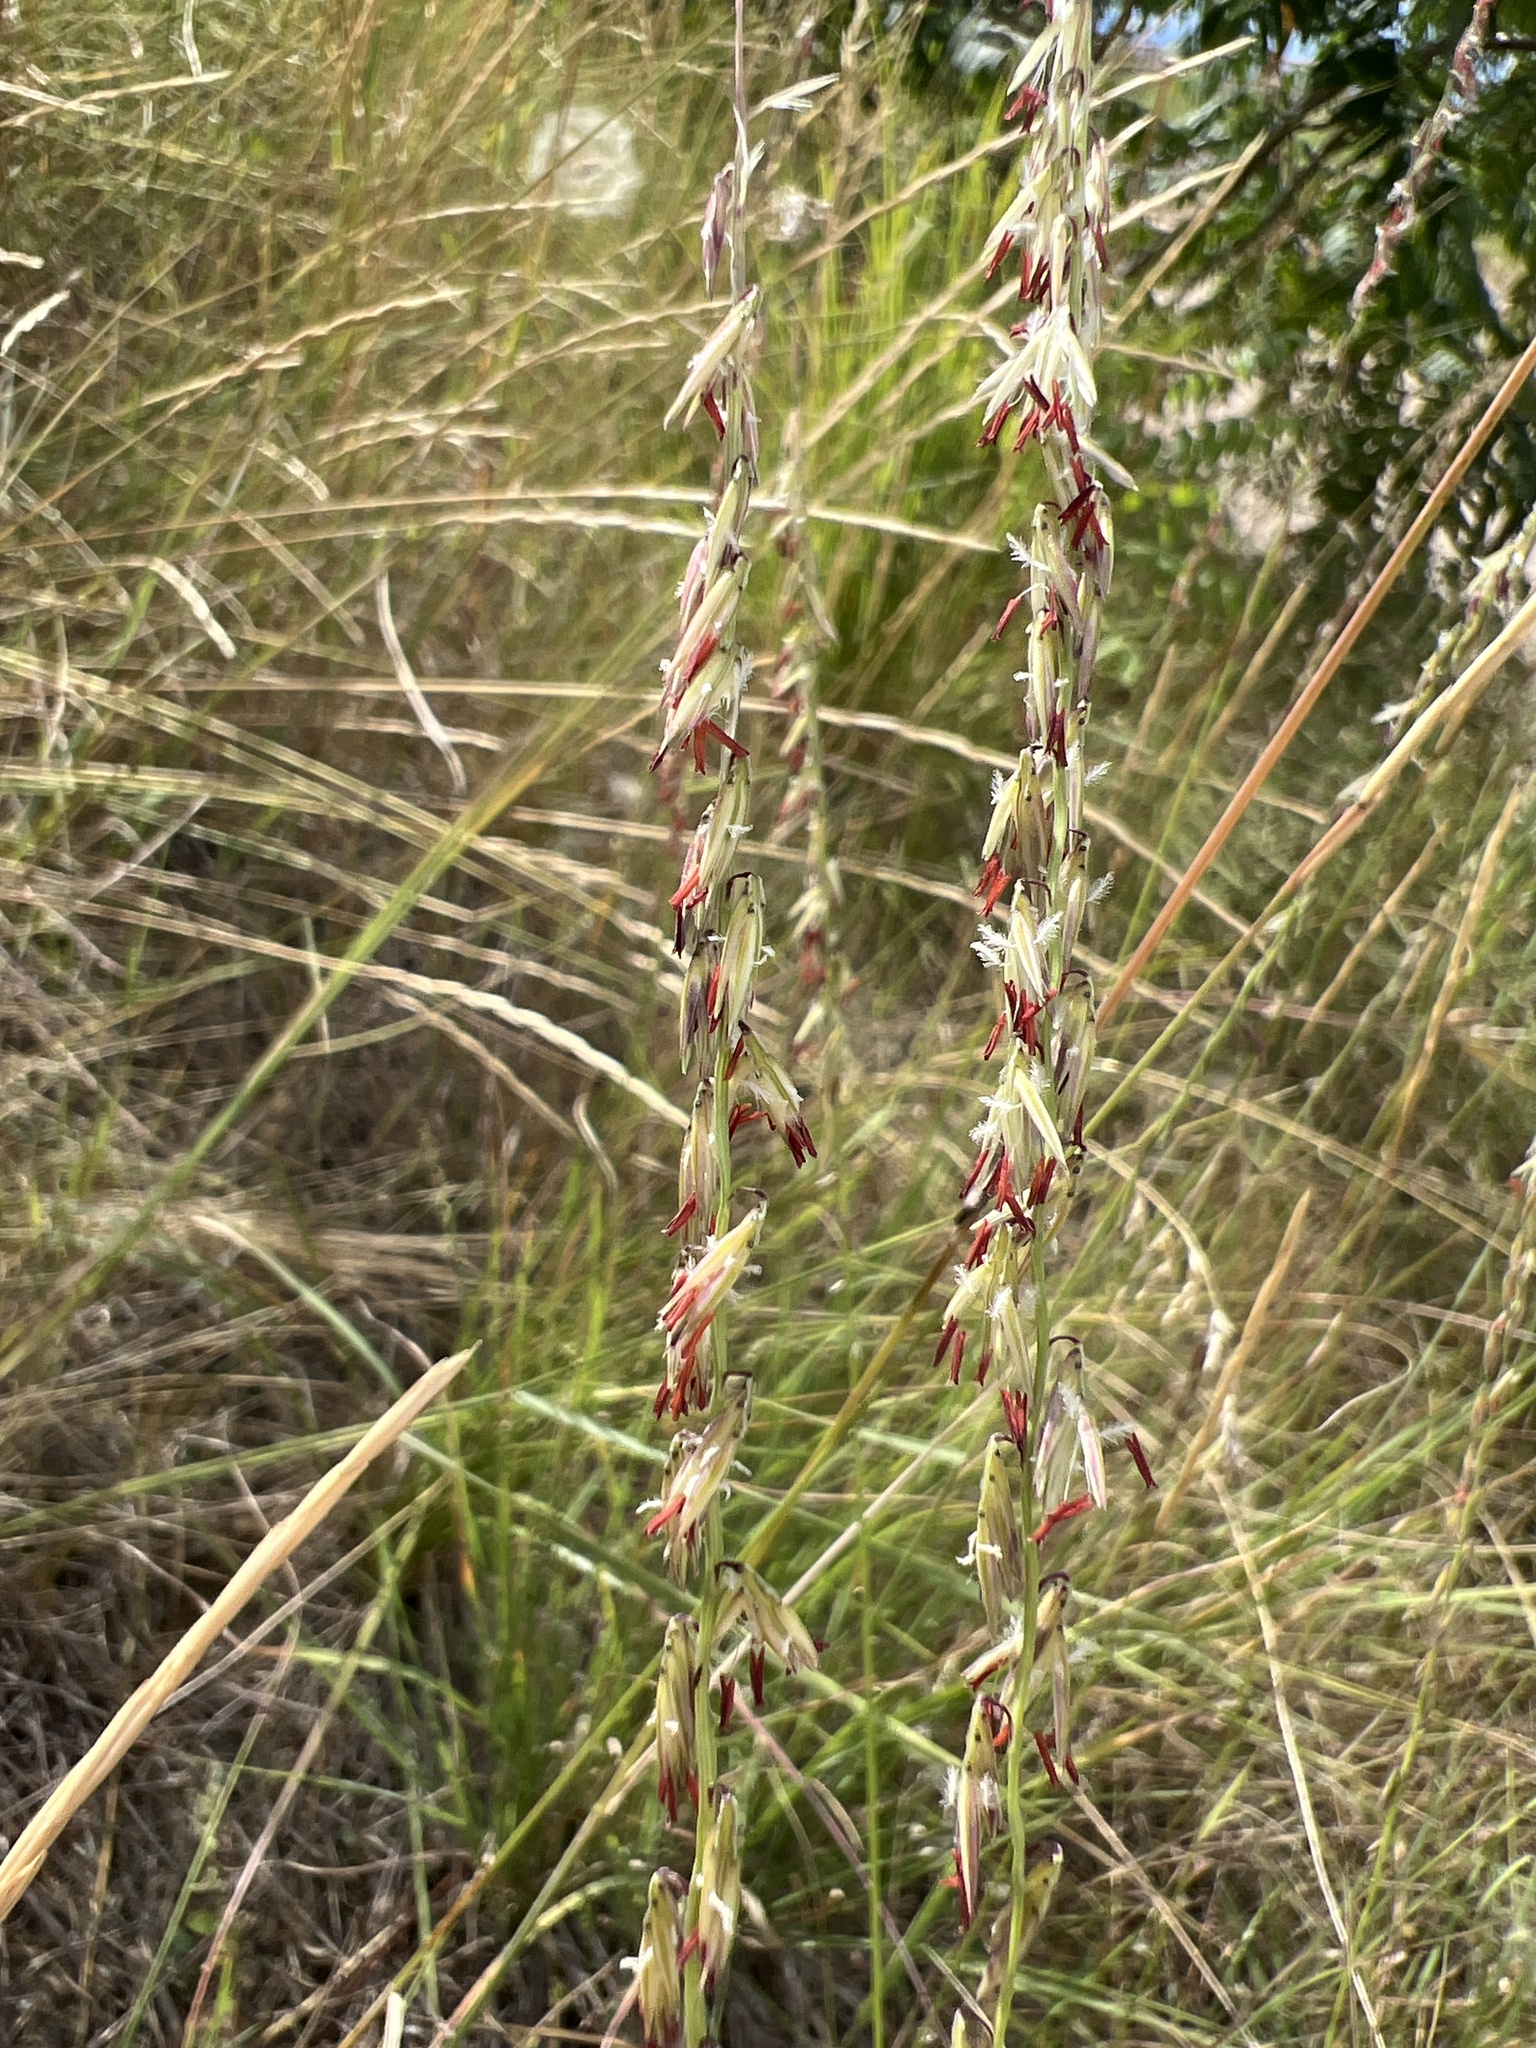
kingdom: Plantae
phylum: Tracheophyta
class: Liliopsida
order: Poales
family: Poaceae
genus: Bouteloua
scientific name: Bouteloua curtipendula
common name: Side-oats grama
